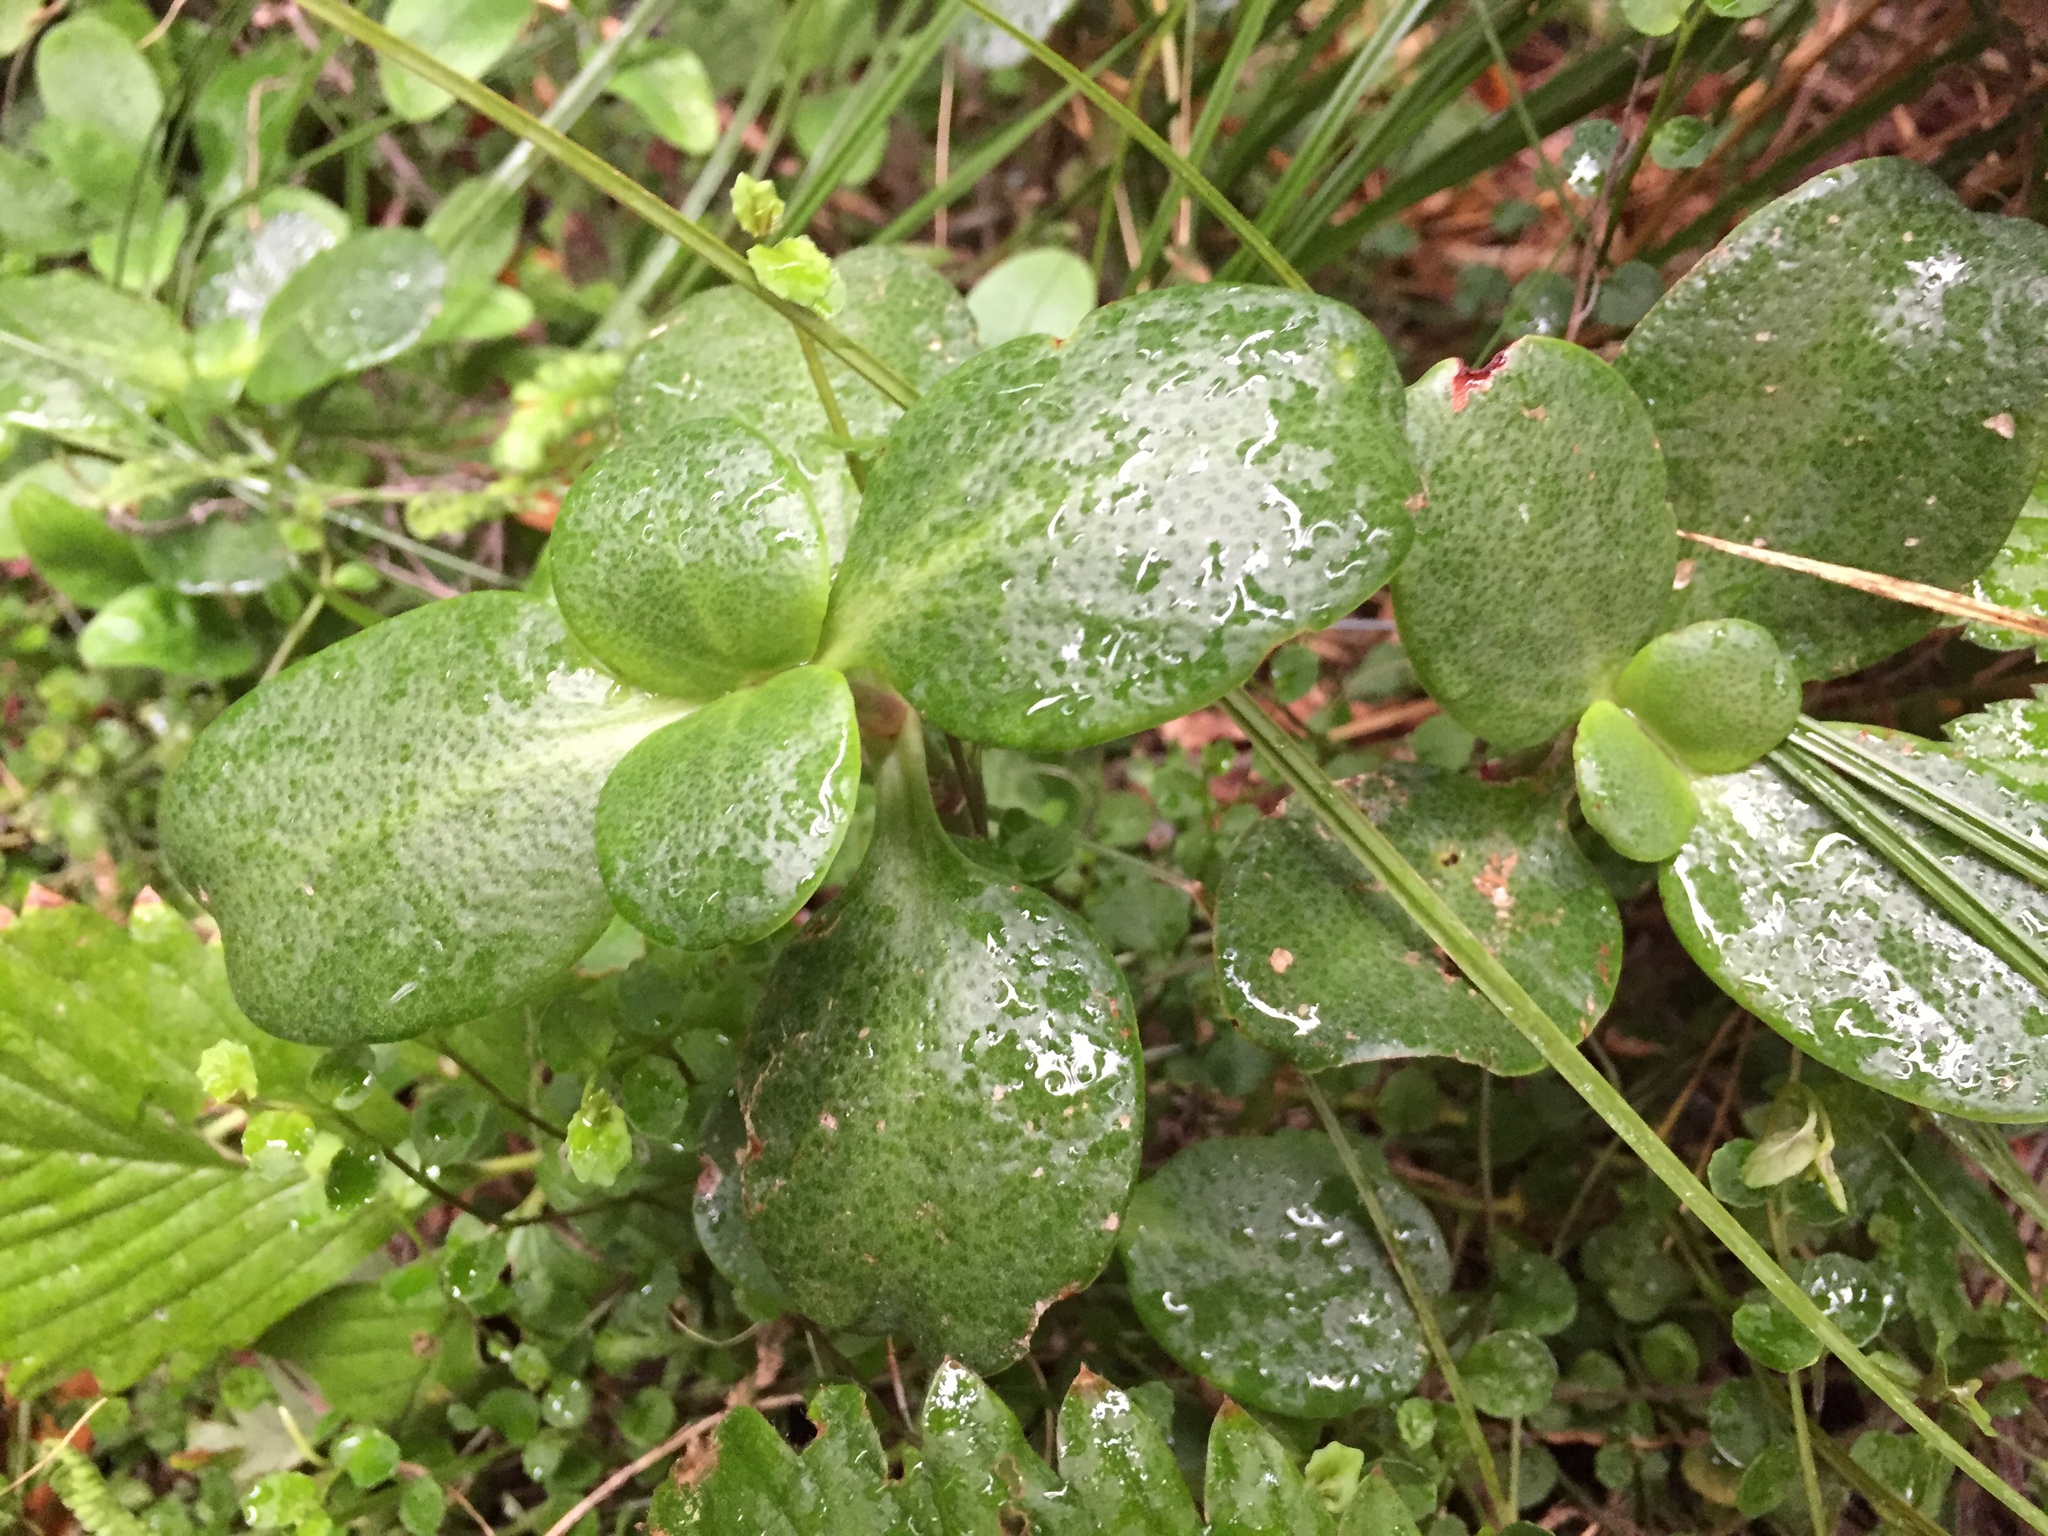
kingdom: Plantae
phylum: Tracheophyta
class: Magnoliopsida
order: Saxifragales
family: Crassulaceae
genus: Crassula
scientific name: Crassula multicava
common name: Cape province pygmyweed
